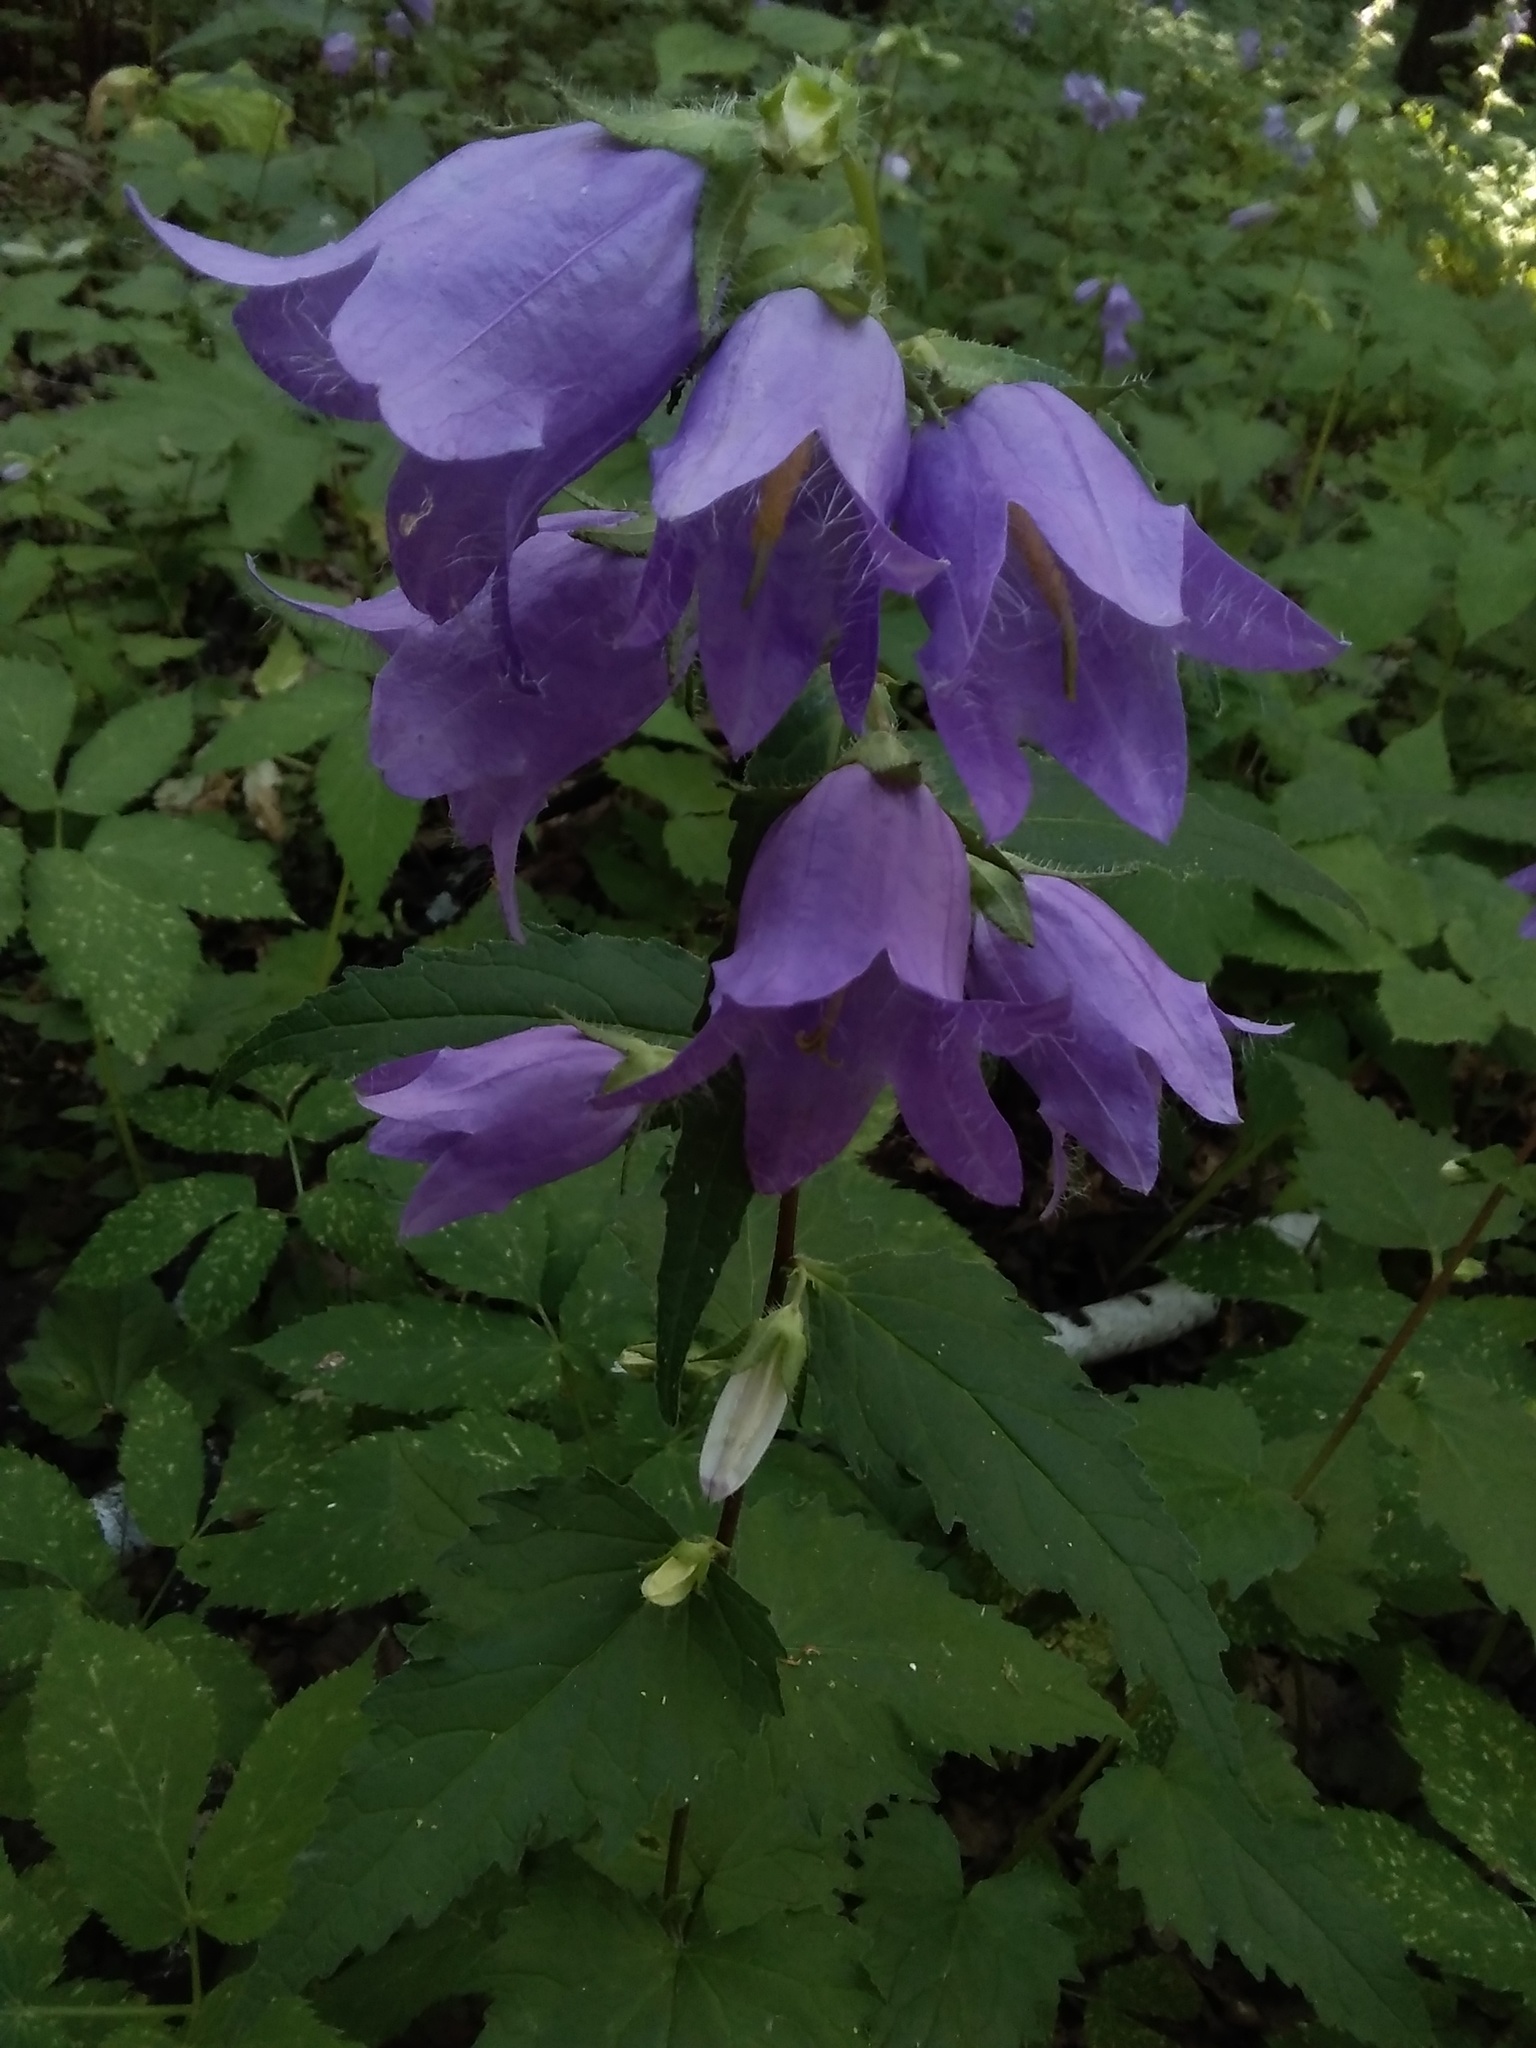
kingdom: Plantae
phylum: Tracheophyta
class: Magnoliopsida
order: Asterales
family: Campanulaceae
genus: Campanula
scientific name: Campanula trachelium
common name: Nettle-leaved bellflower
